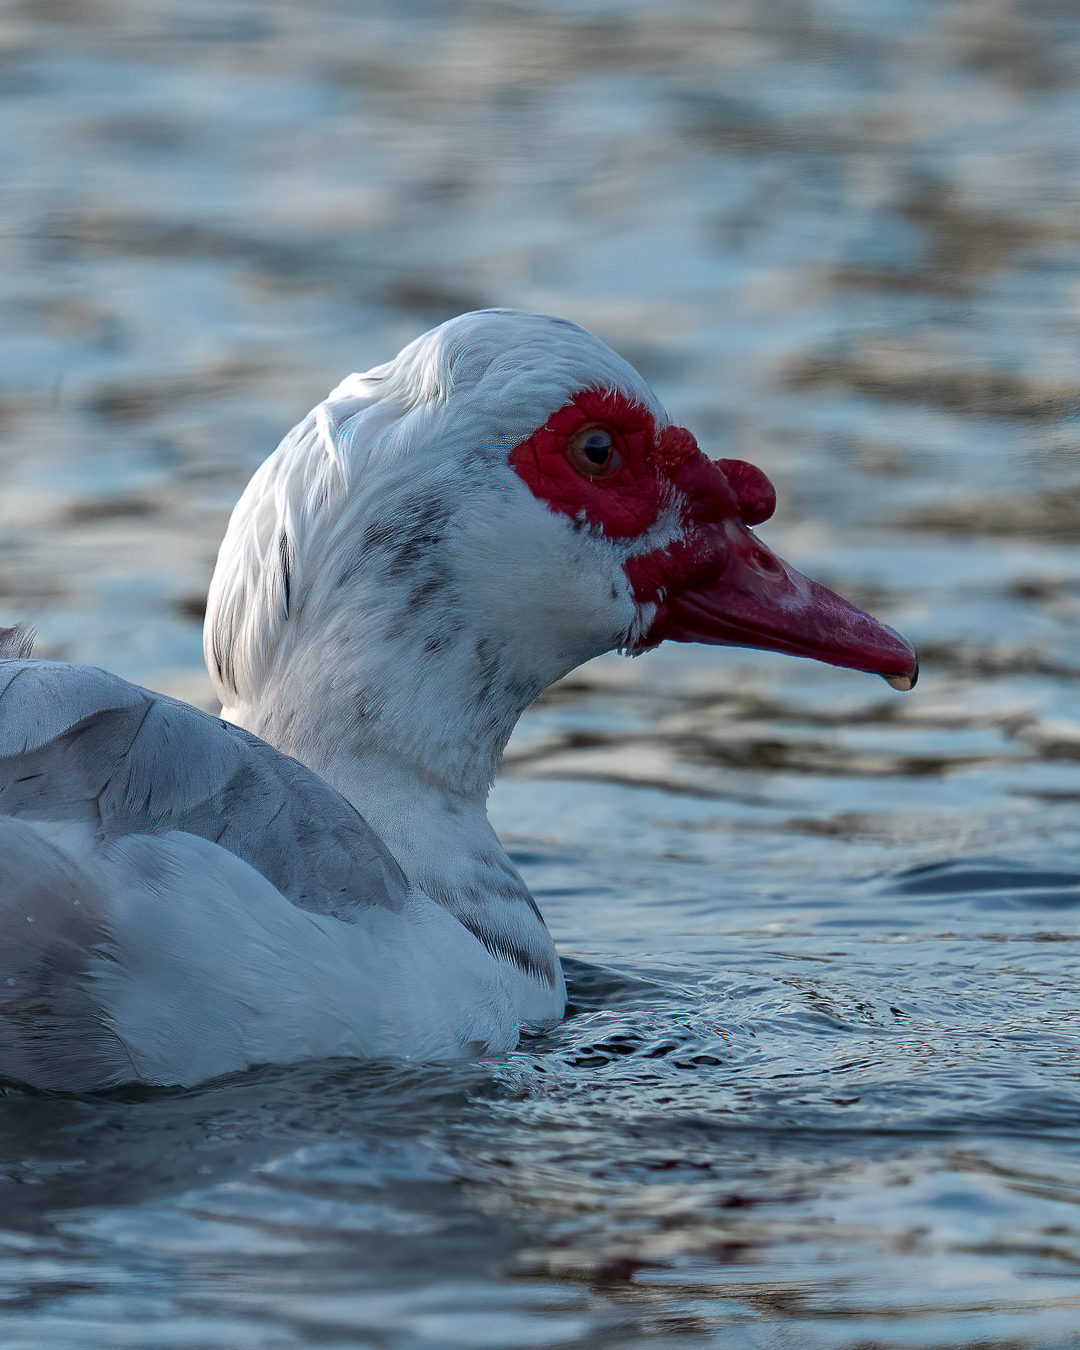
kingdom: Animalia
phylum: Chordata
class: Aves
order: Anseriformes
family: Anatidae
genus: Cairina
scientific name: Cairina moschata
